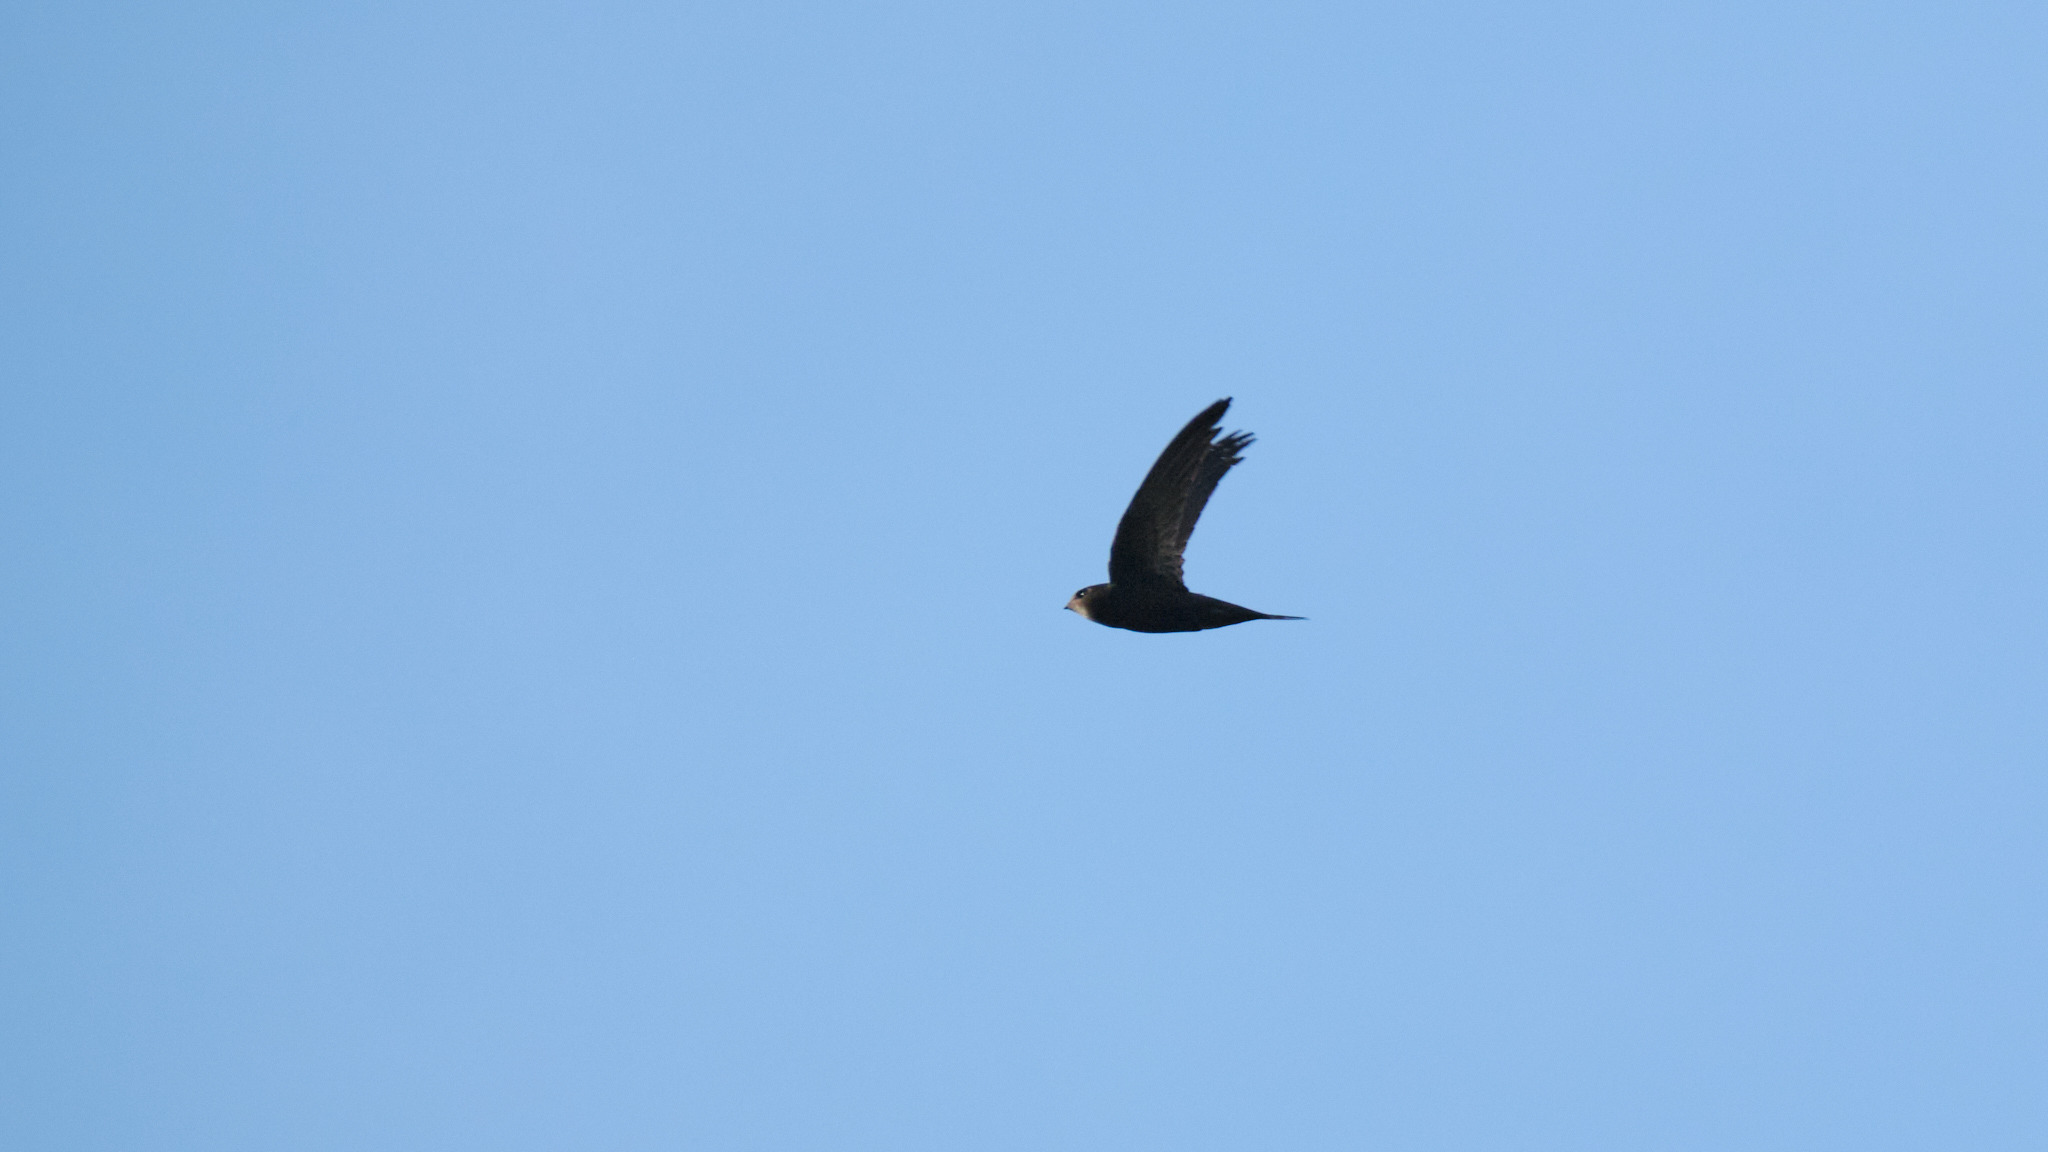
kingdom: Animalia
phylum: Chordata
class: Aves
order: Apodiformes
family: Apodidae
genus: Apus
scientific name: Apus apus
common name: Common swift
